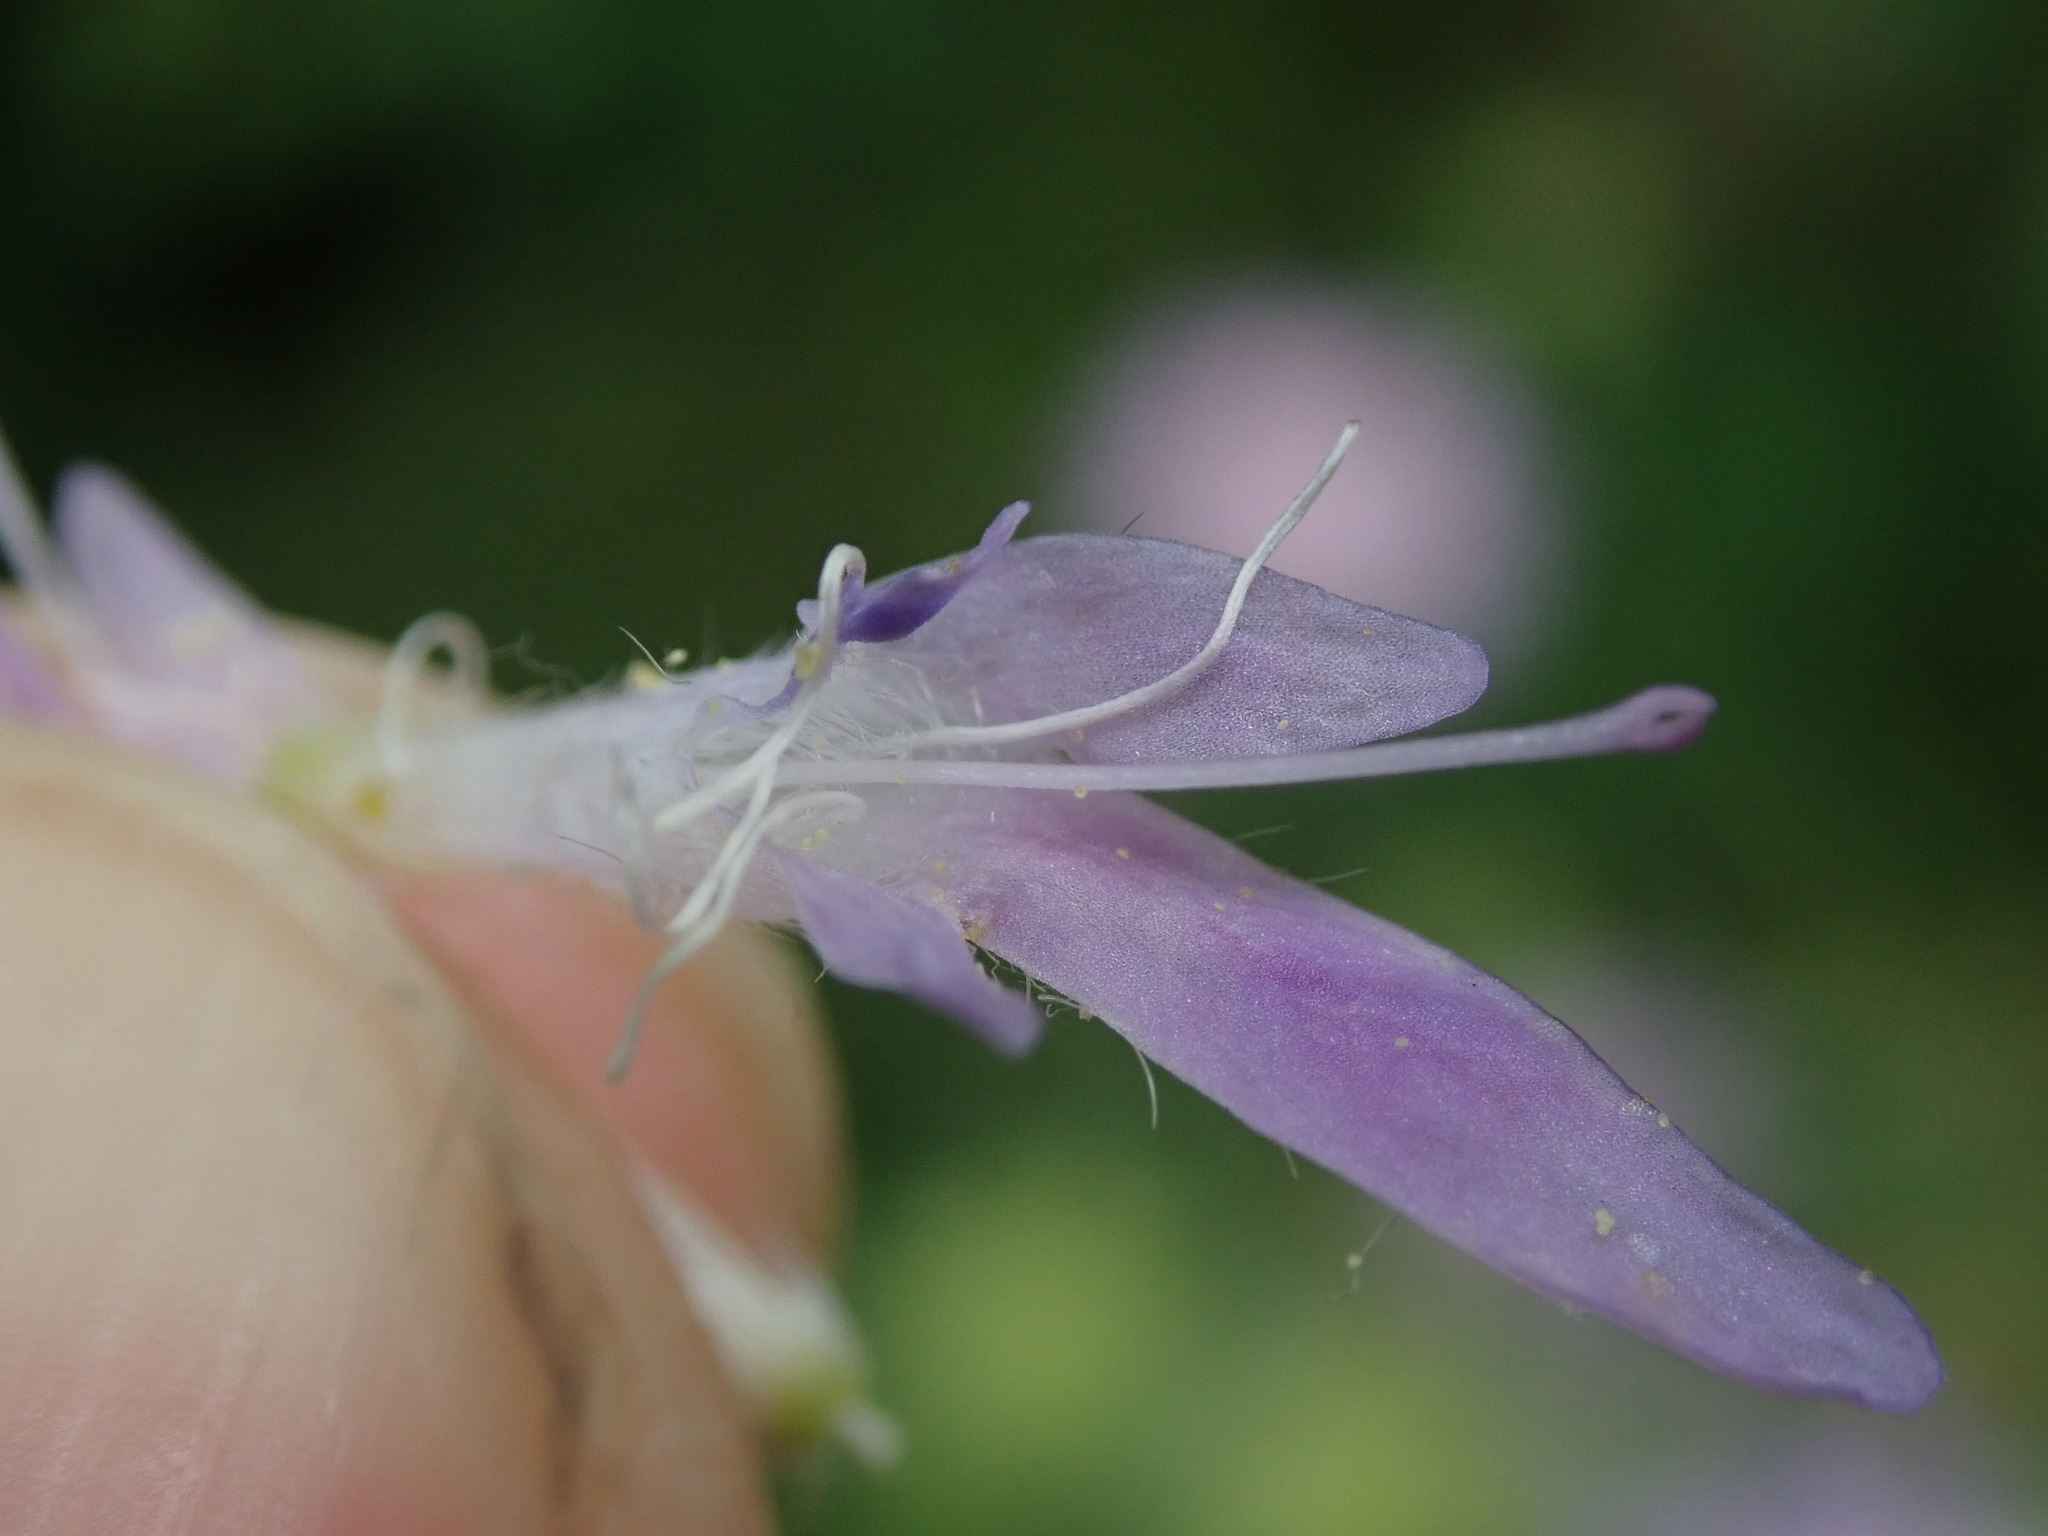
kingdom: Plantae
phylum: Tracheophyta
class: Magnoliopsida
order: Dipsacales
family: Caprifoliaceae
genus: Knautia
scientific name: Knautia arvensis
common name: Field scabiosa
